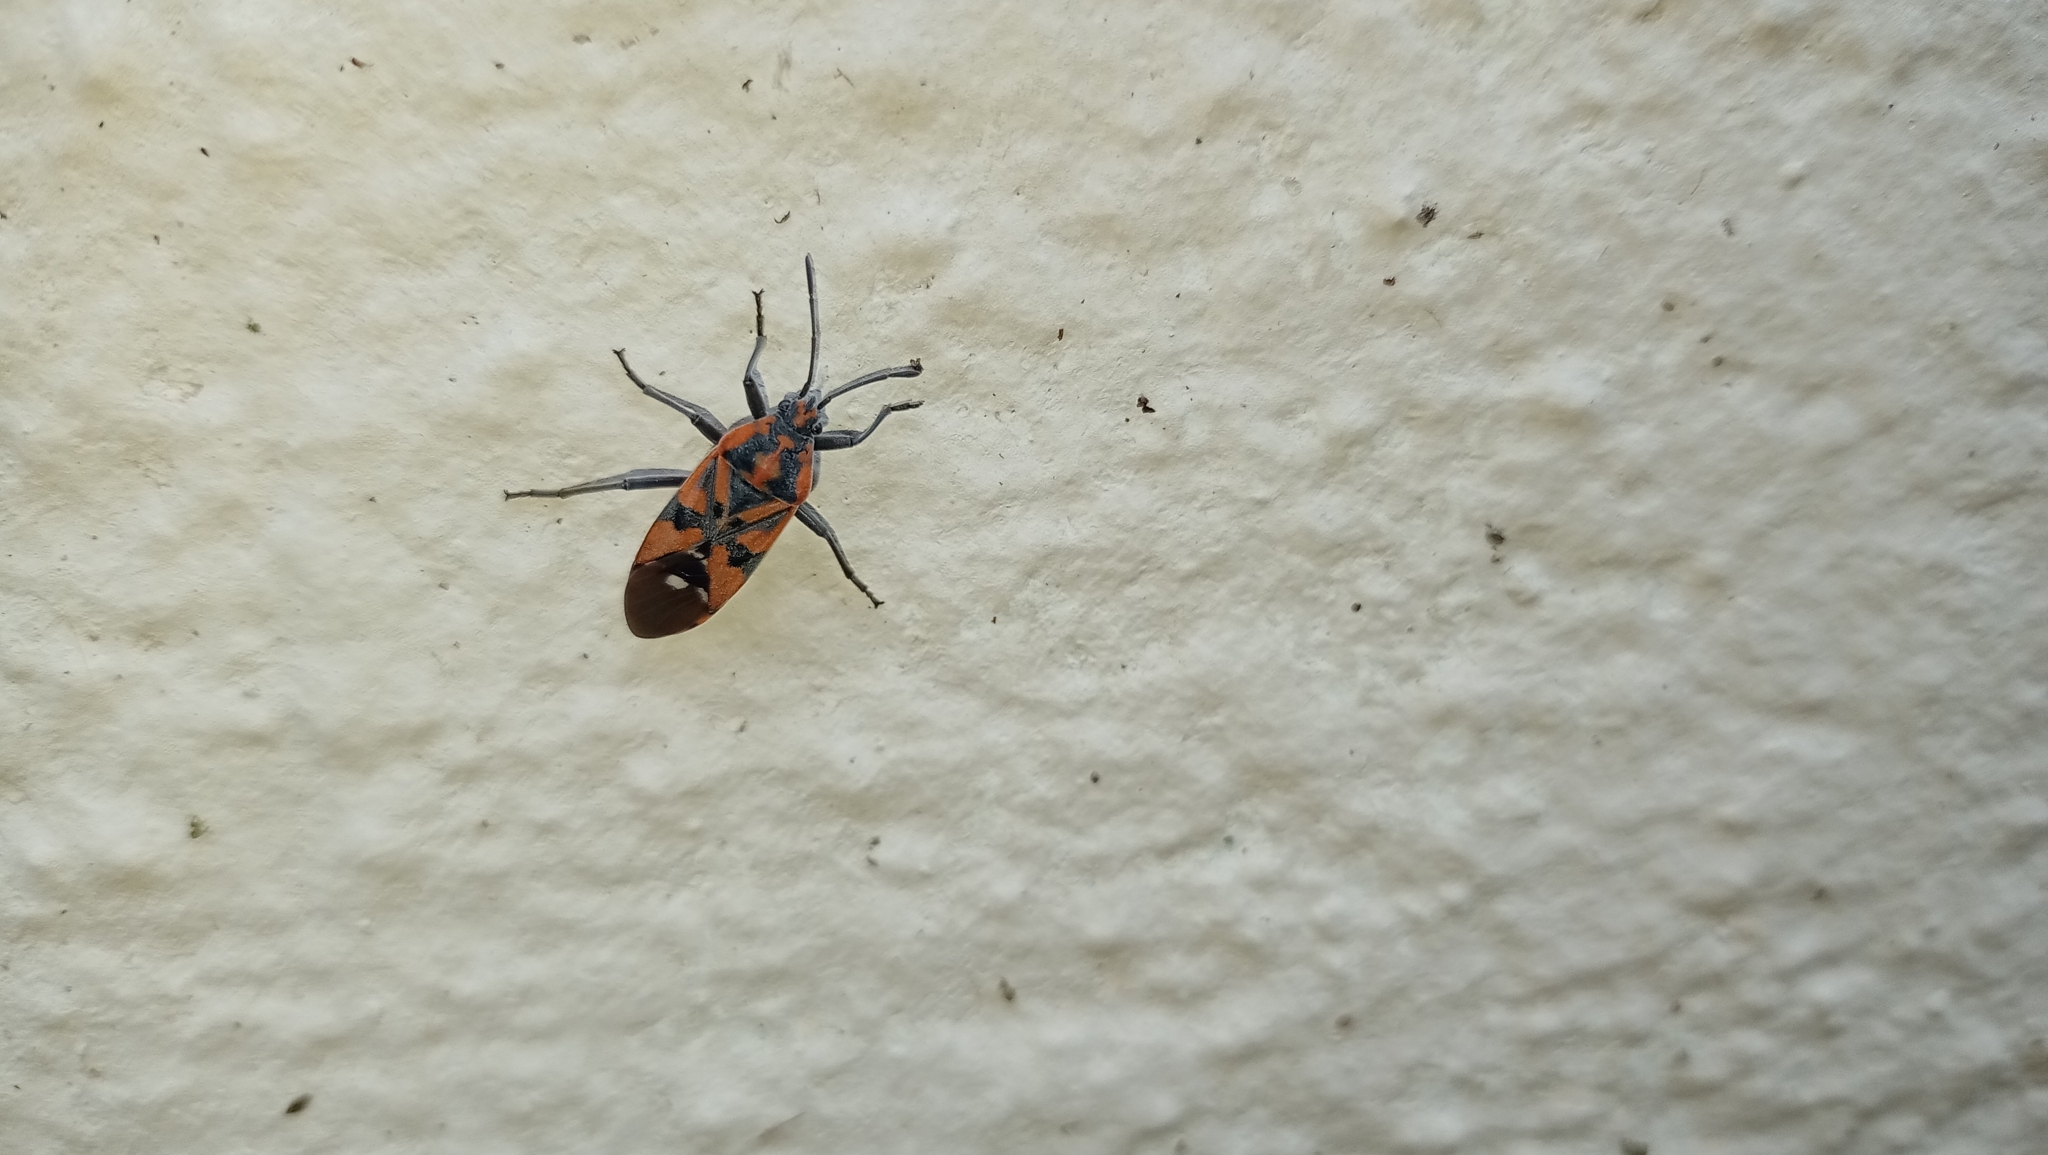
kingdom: Animalia
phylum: Arthropoda
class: Insecta
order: Hemiptera
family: Lygaeidae
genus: Spilostethus
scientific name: Spilostethus pandurus
